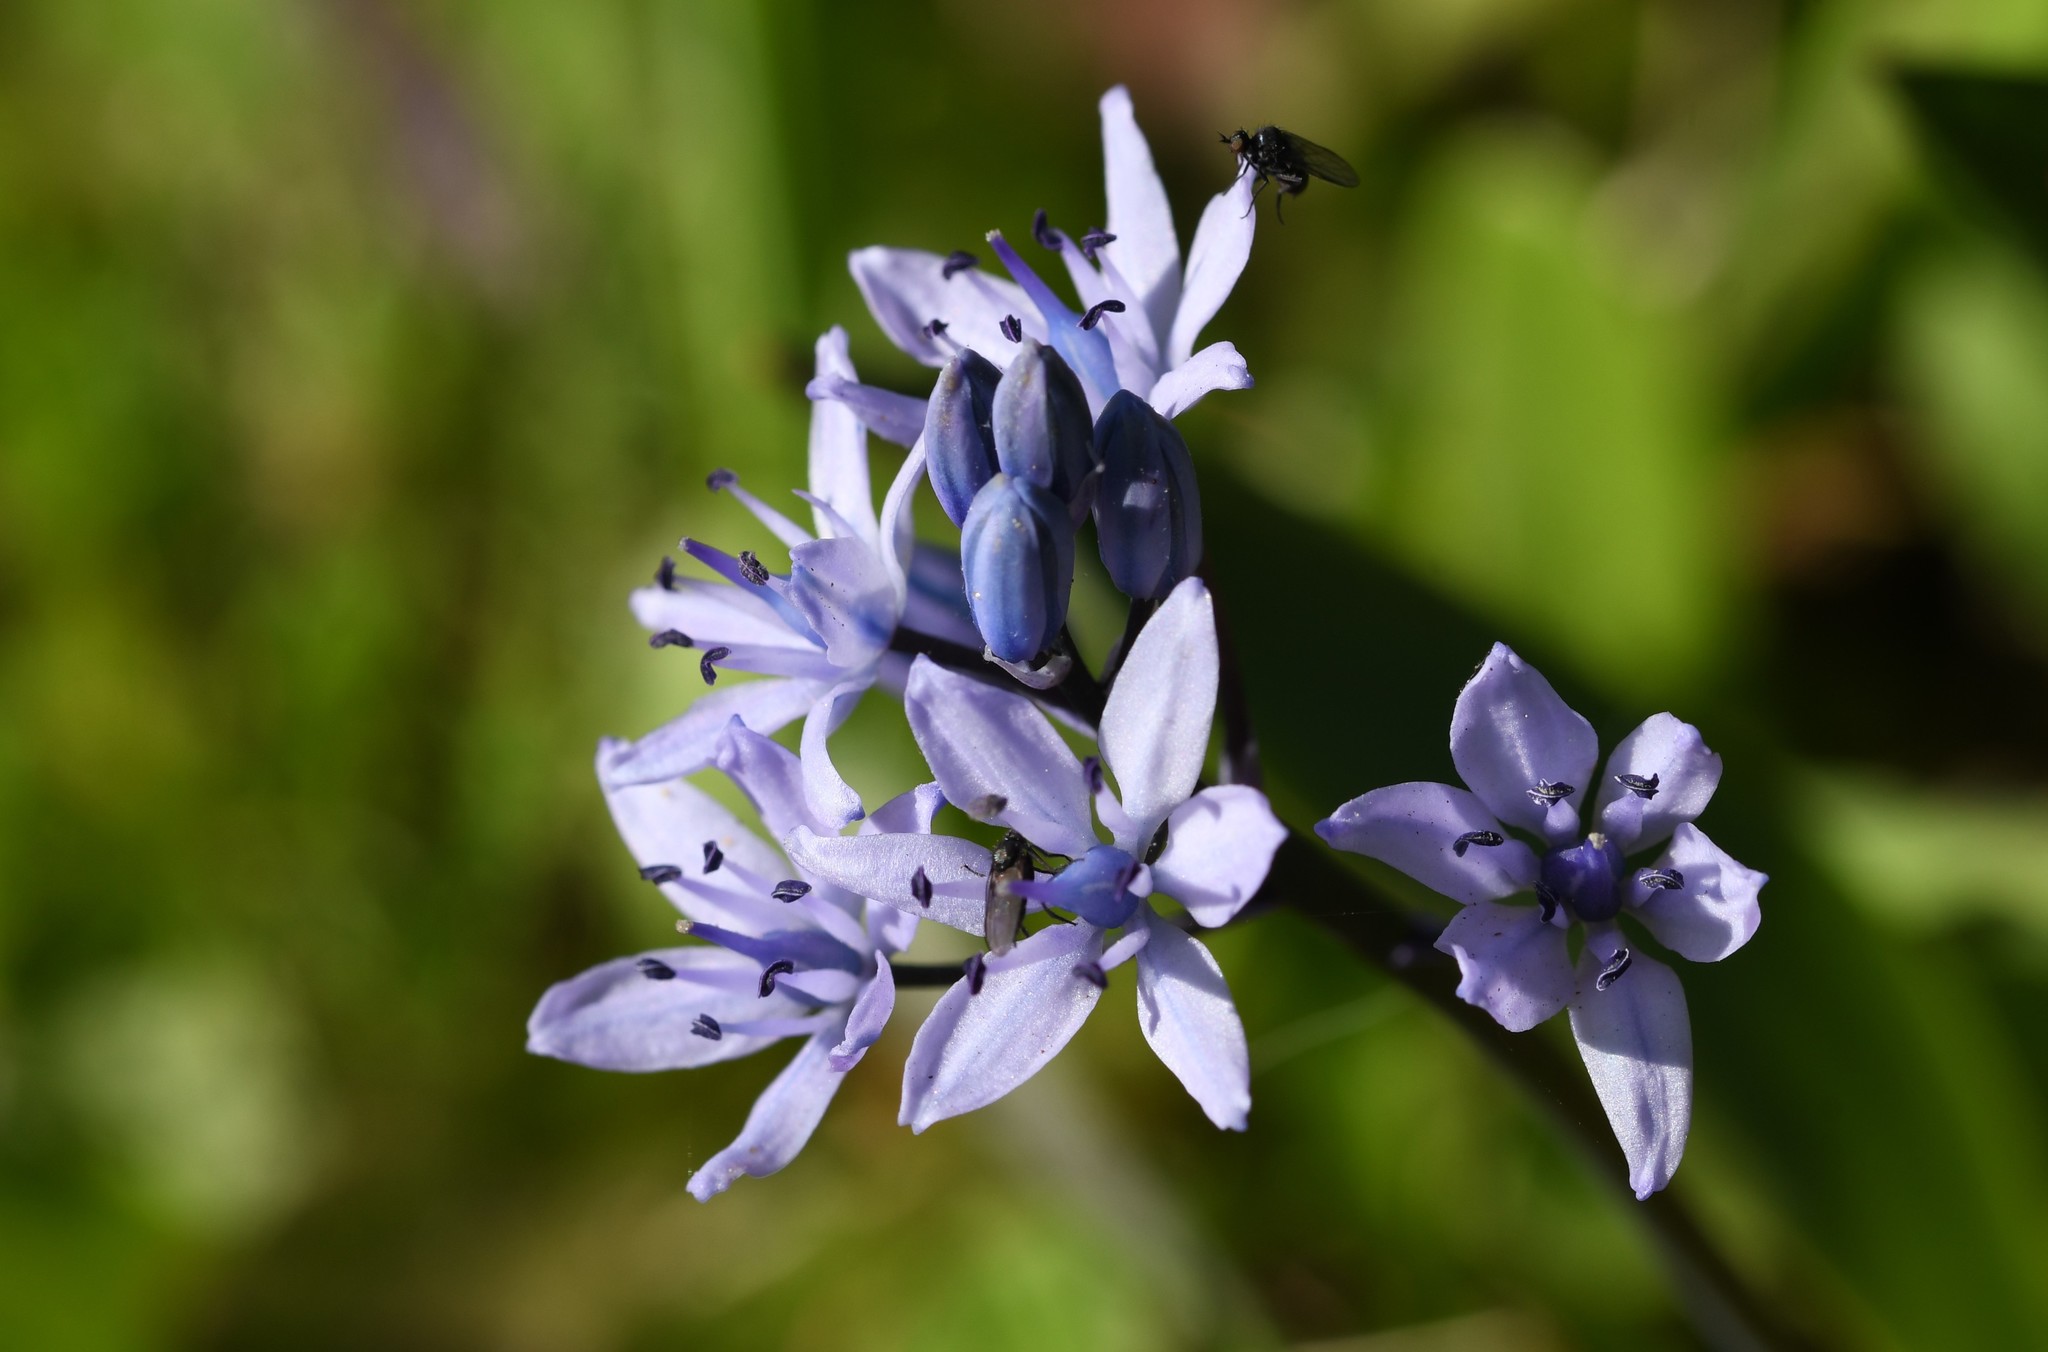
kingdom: Plantae
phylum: Tracheophyta
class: Liliopsida
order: Asparagales
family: Asparagaceae
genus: Scilla
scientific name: Scilla monophyllos
